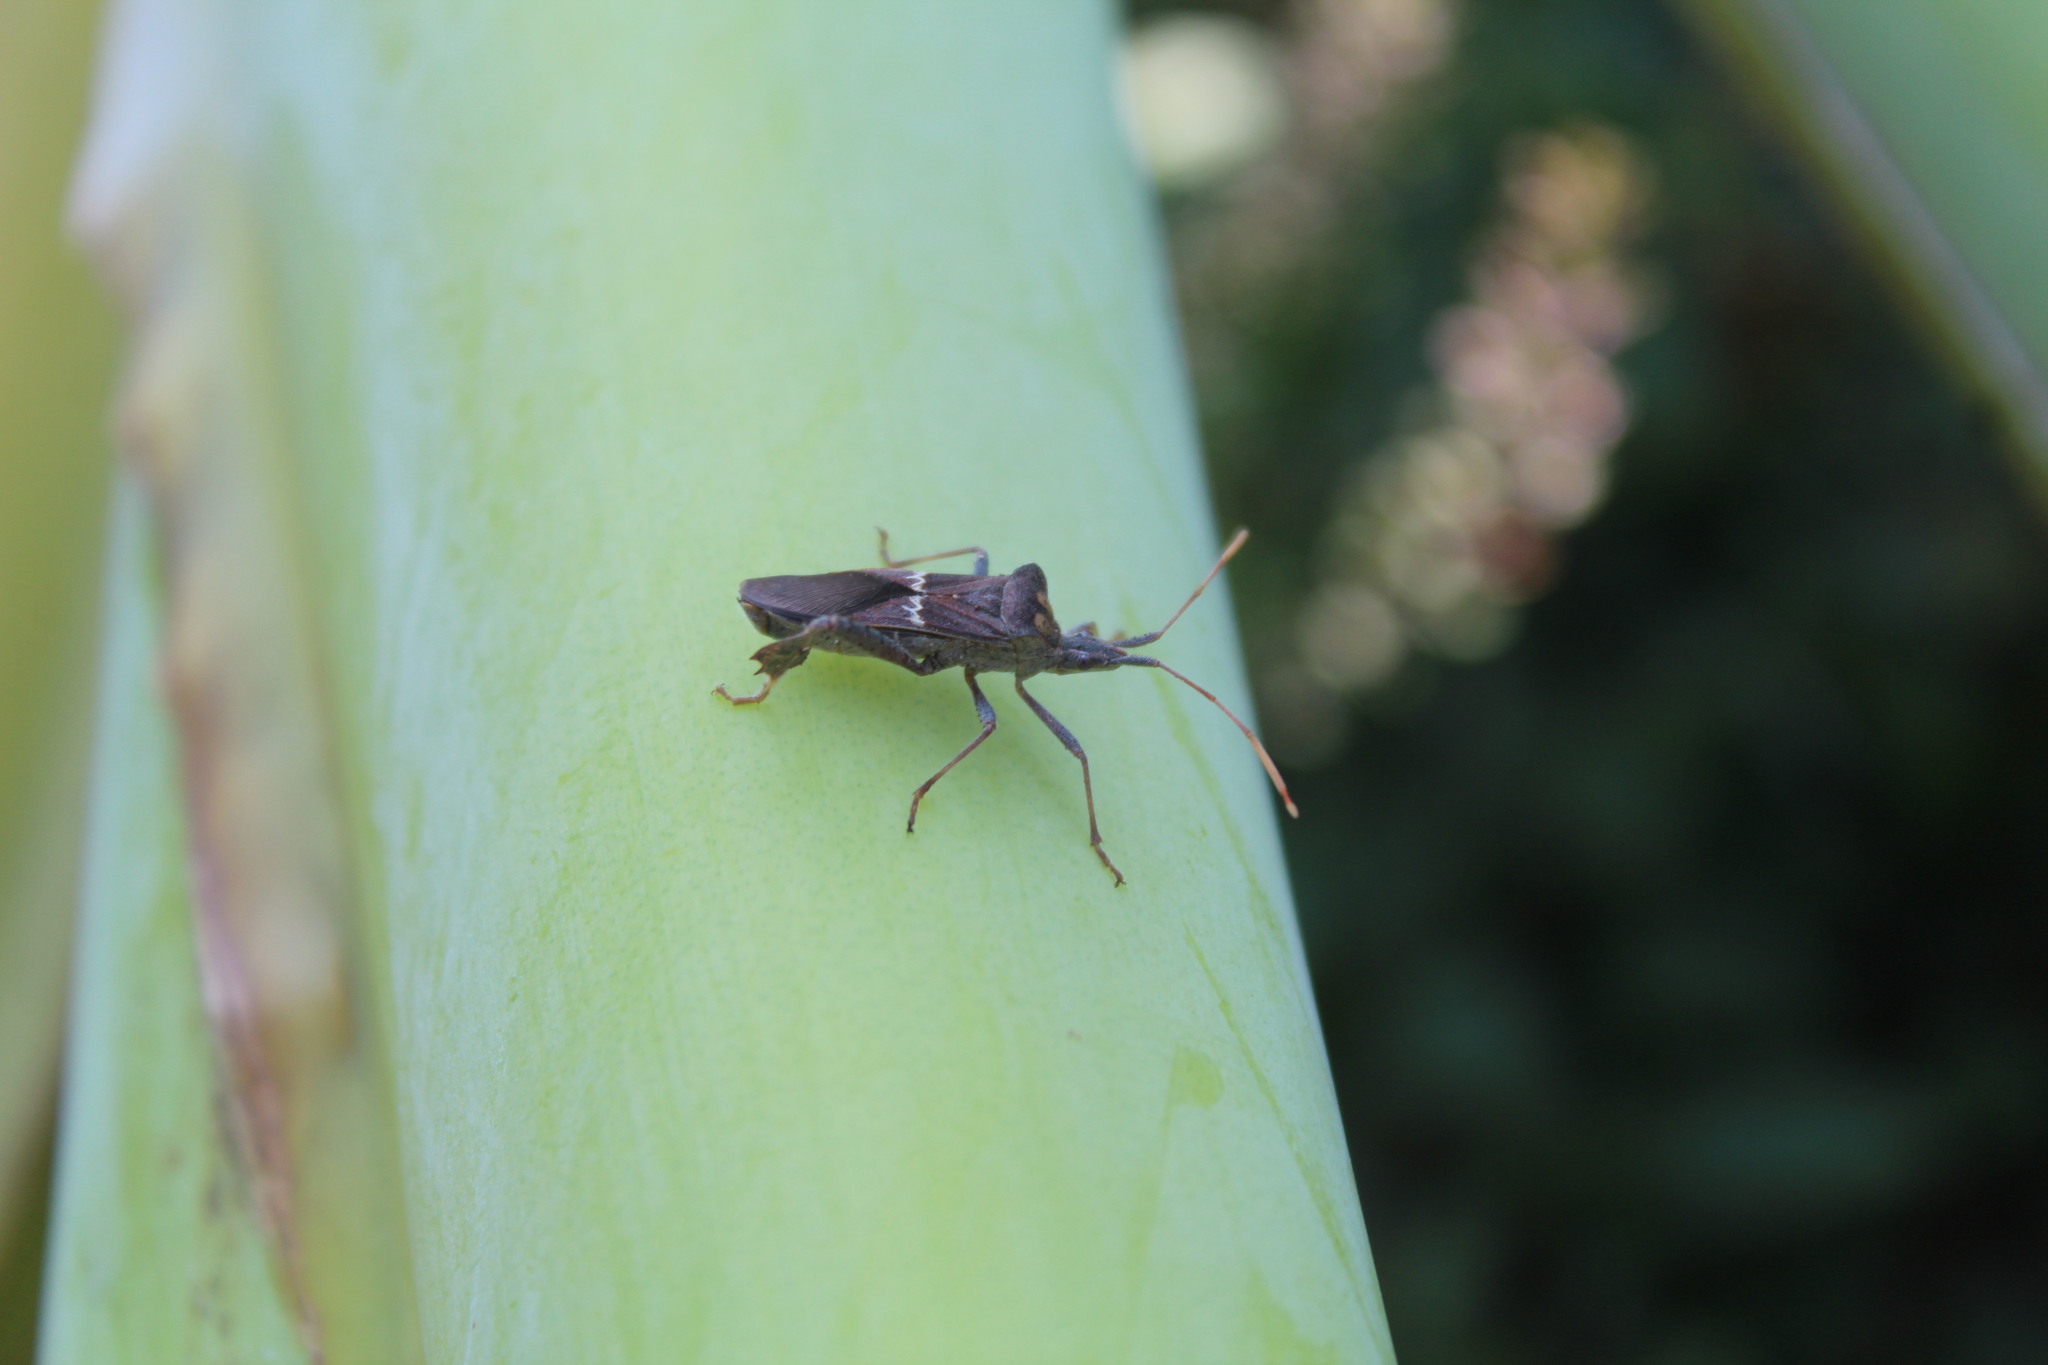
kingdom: Animalia
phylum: Arthropoda
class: Insecta
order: Hemiptera
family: Coreidae
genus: Leptoglossus
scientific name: Leptoglossus zonatus
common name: Large-legged bug
